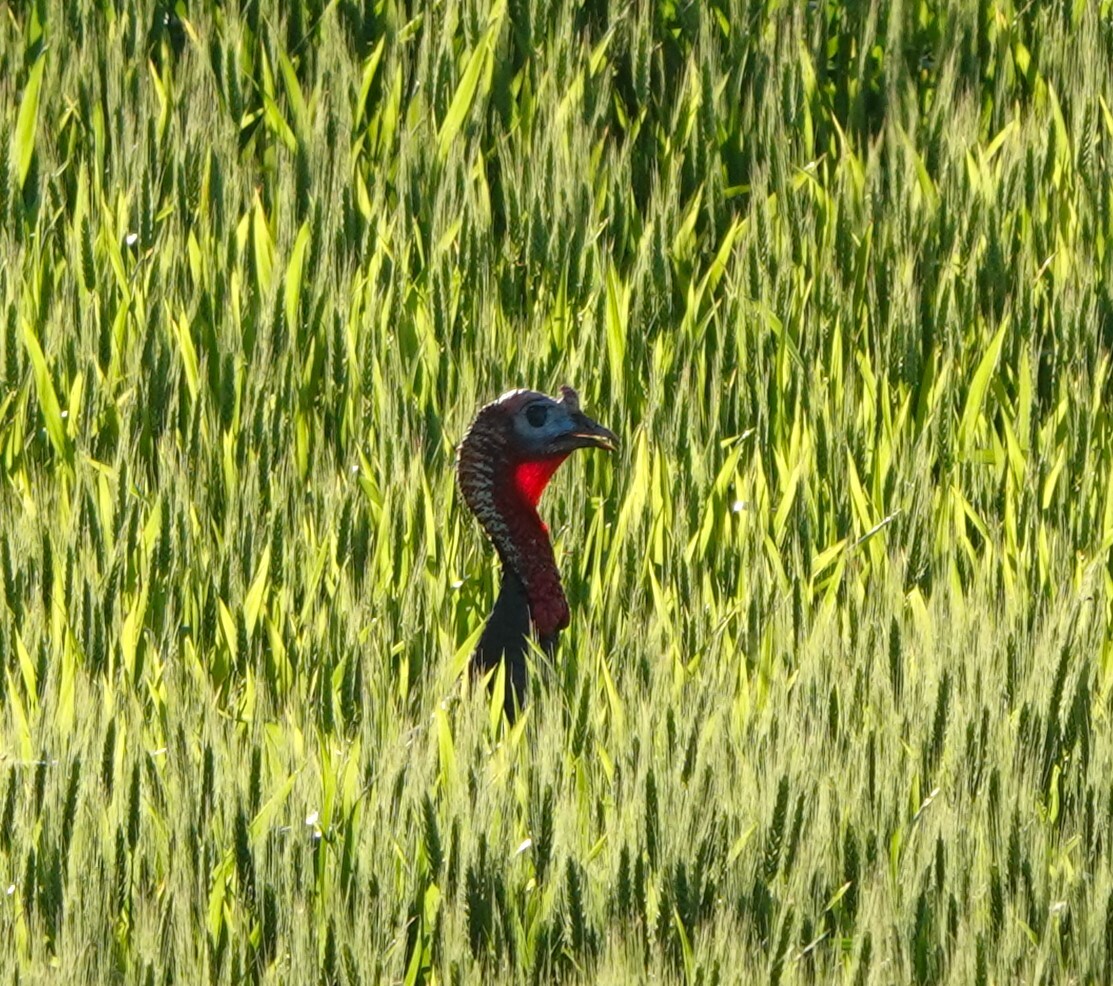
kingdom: Animalia
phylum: Chordata
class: Aves
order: Galliformes
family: Phasianidae
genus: Meleagris
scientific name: Meleagris gallopavo
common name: Wild turkey
